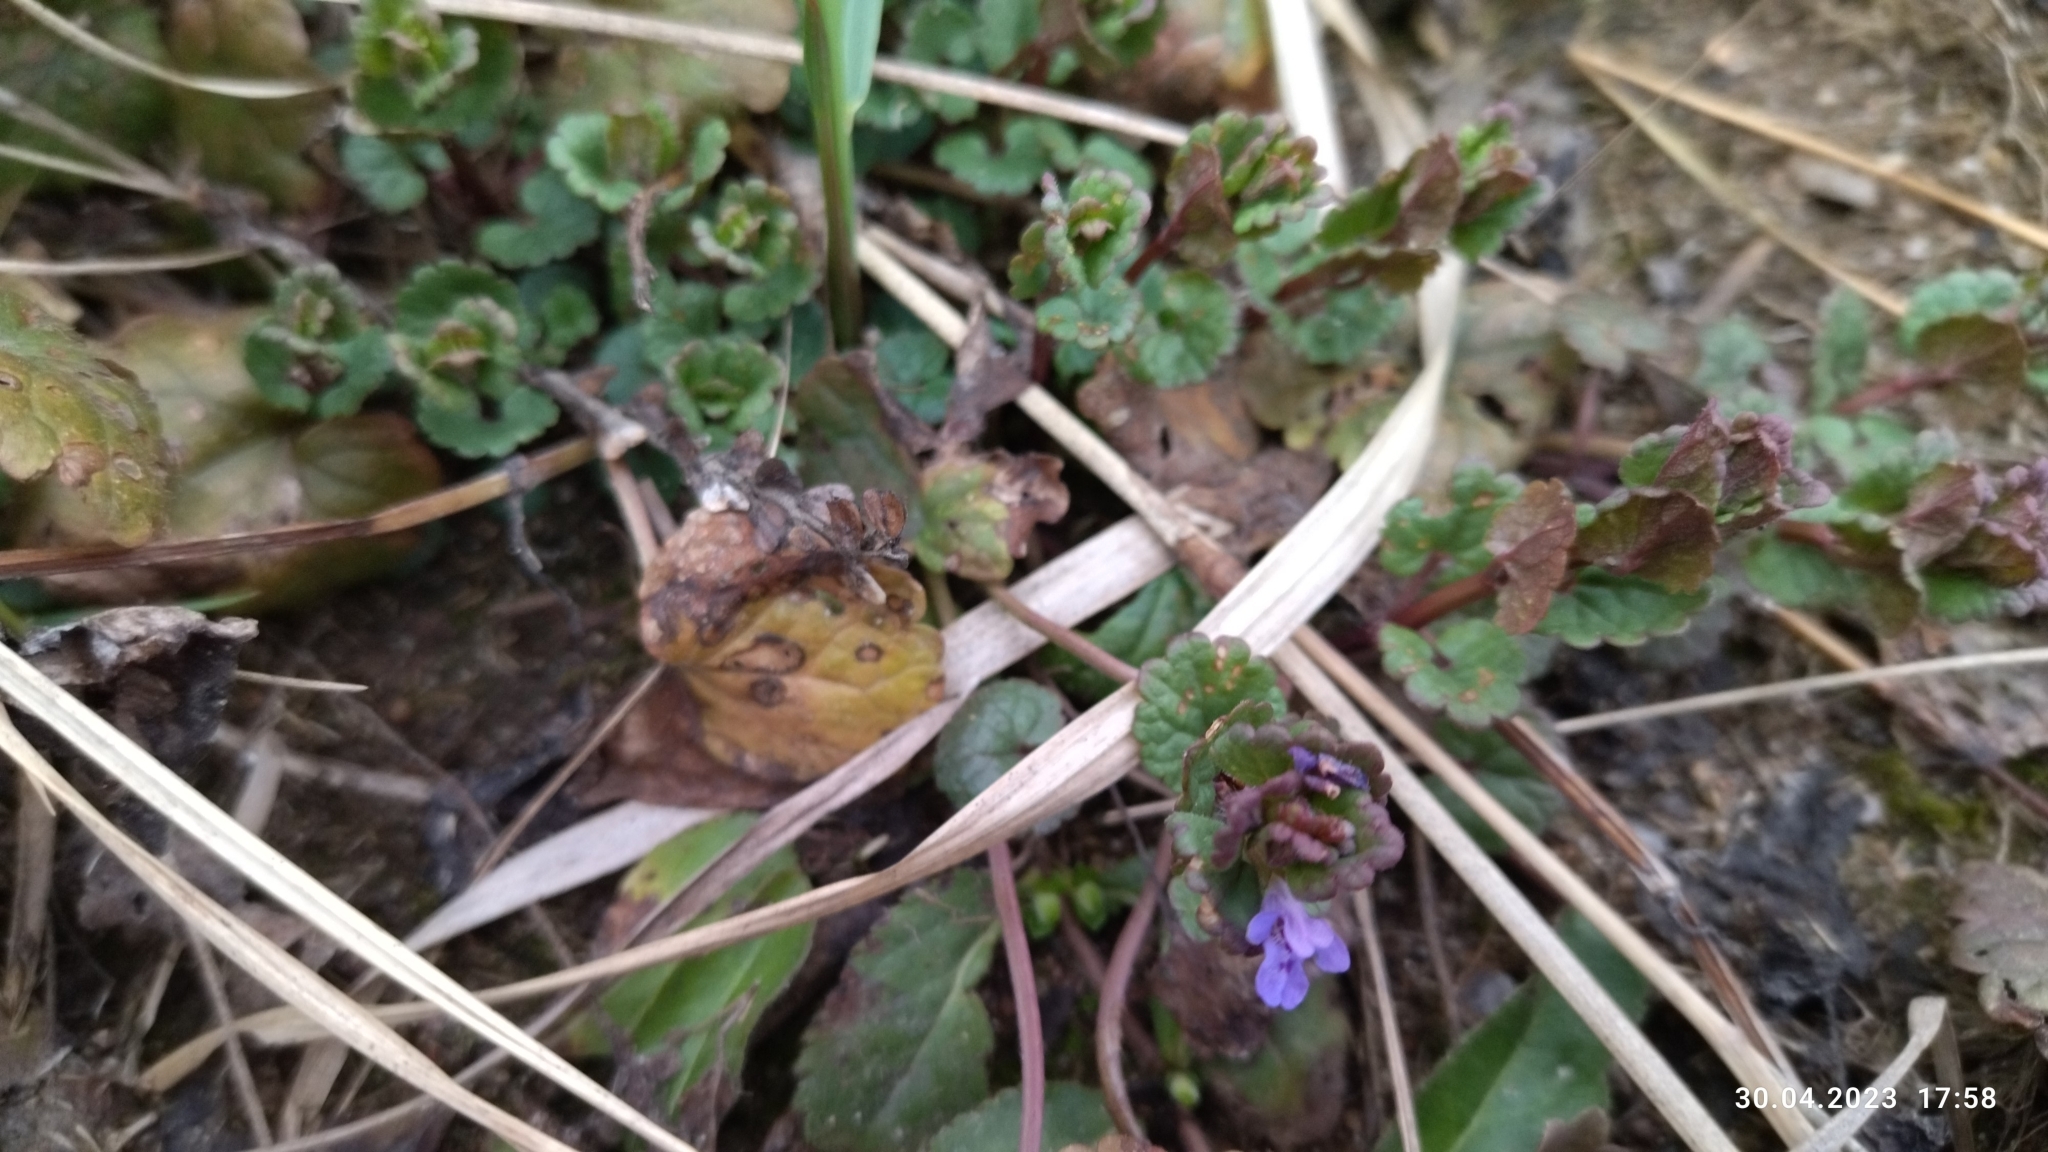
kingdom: Plantae
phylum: Tracheophyta
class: Magnoliopsida
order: Lamiales
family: Lamiaceae
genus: Glechoma
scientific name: Glechoma hederacea
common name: Ground ivy
